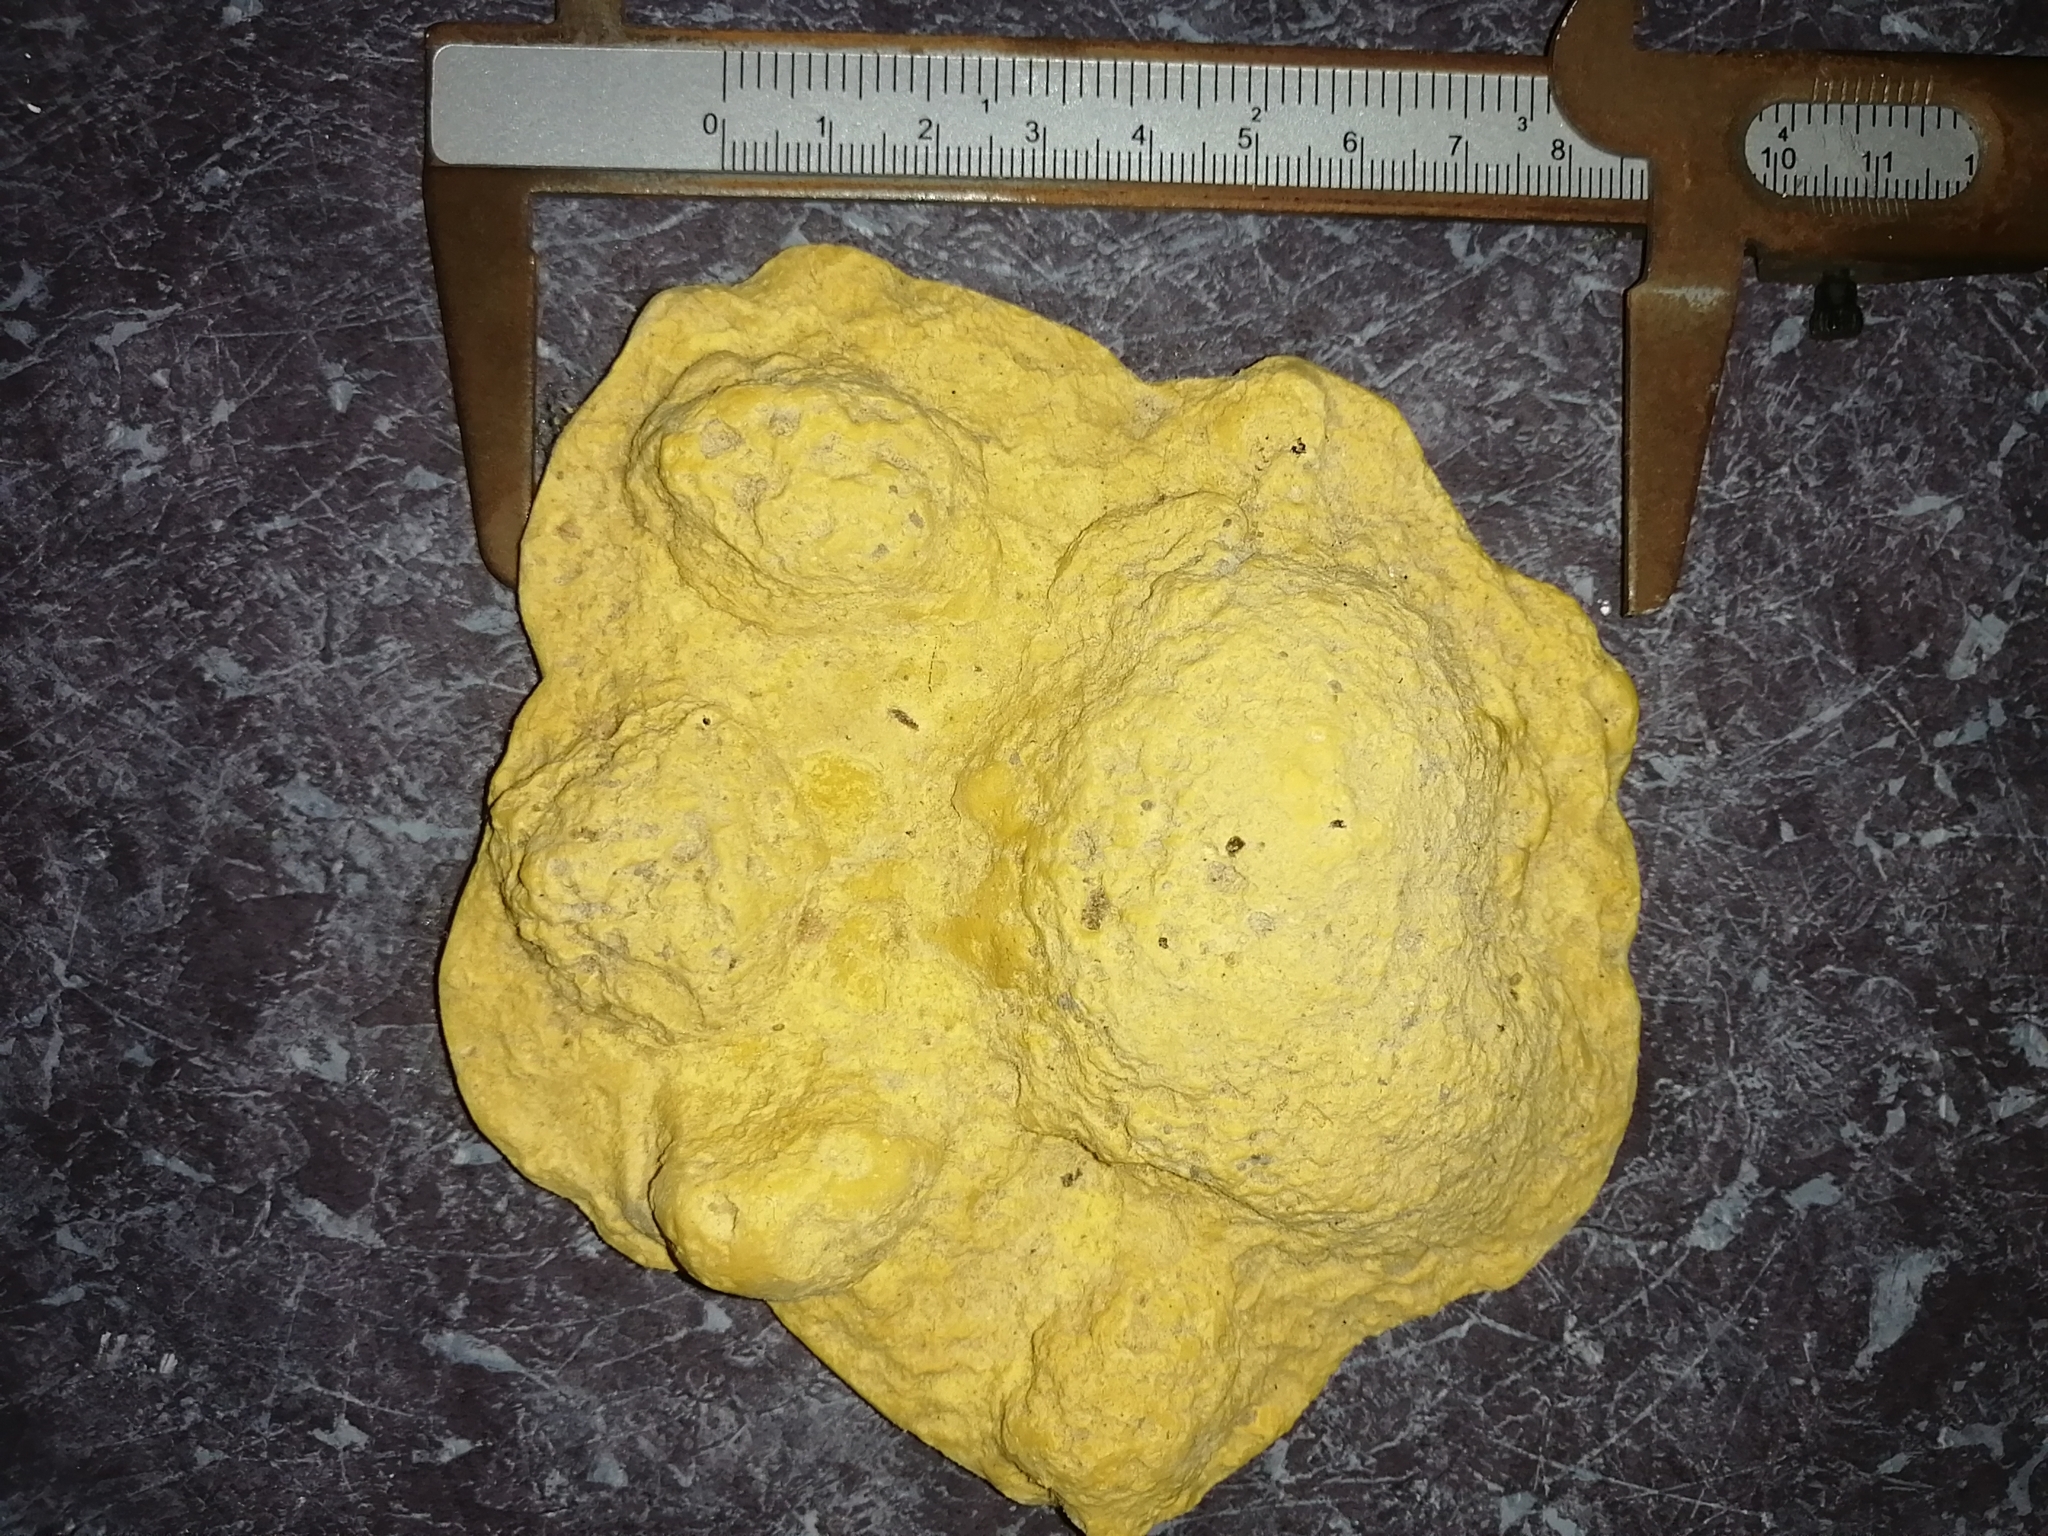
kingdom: Animalia
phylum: Chordata
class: Mammalia
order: Carnivora
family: Felidae
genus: Panthera
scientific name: Panthera onca
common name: Jaguar
